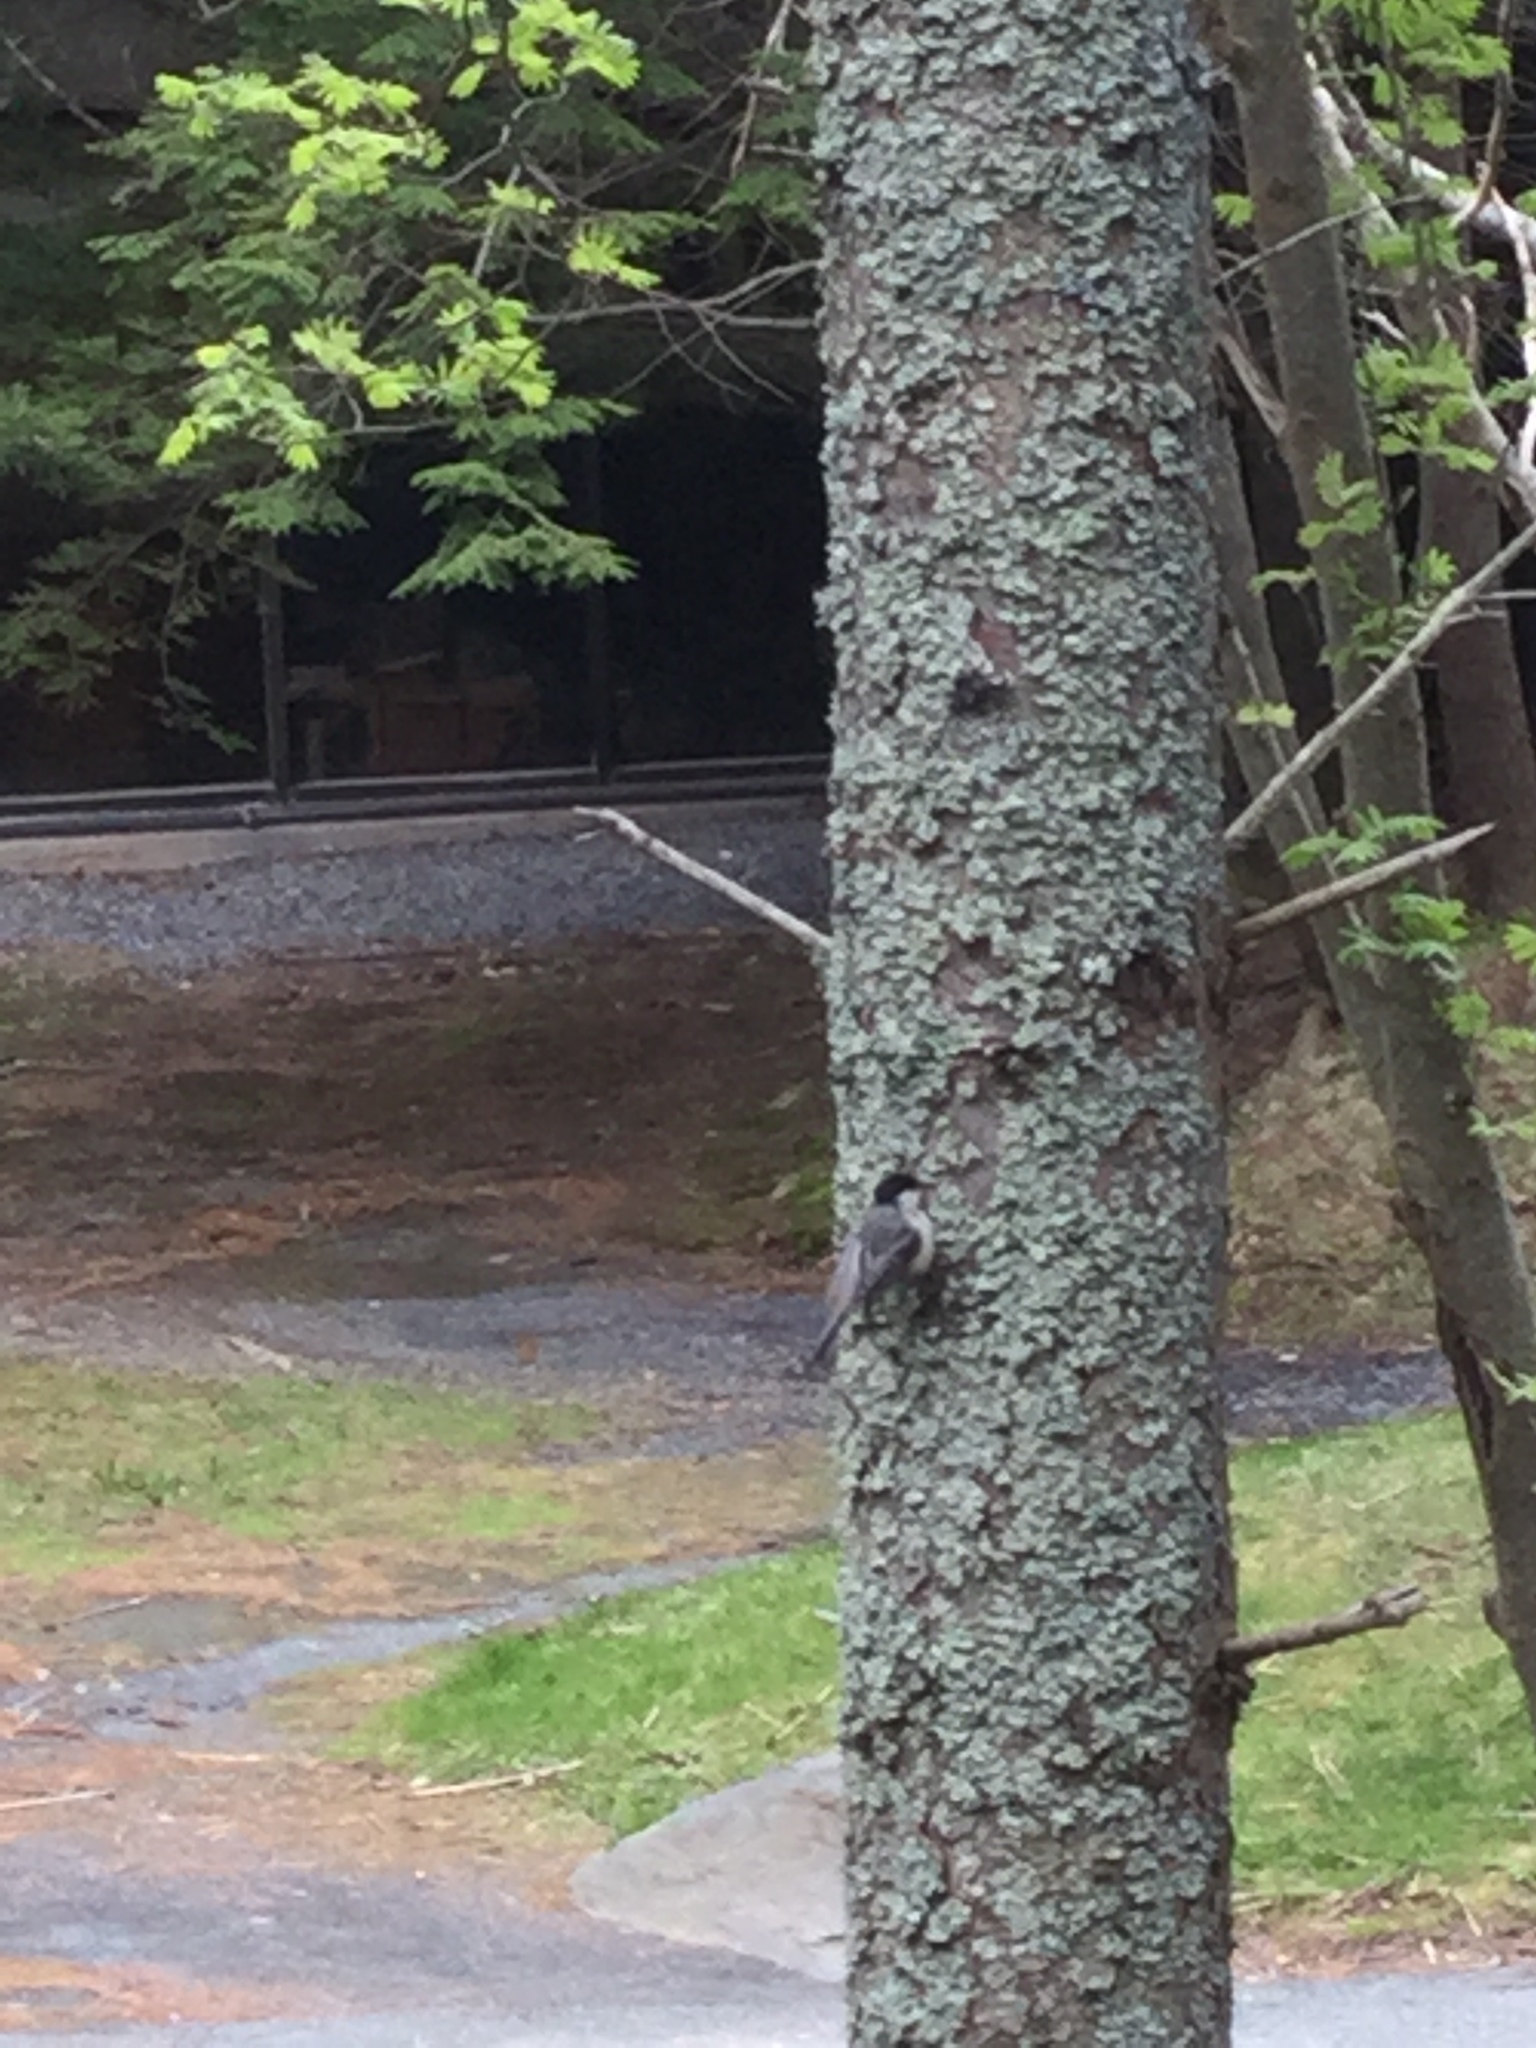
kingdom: Animalia
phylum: Chordata
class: Aves
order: Passeriformes
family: Paridae
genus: Poecile
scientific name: Poecile atricapillus
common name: Black-capped chickadee
